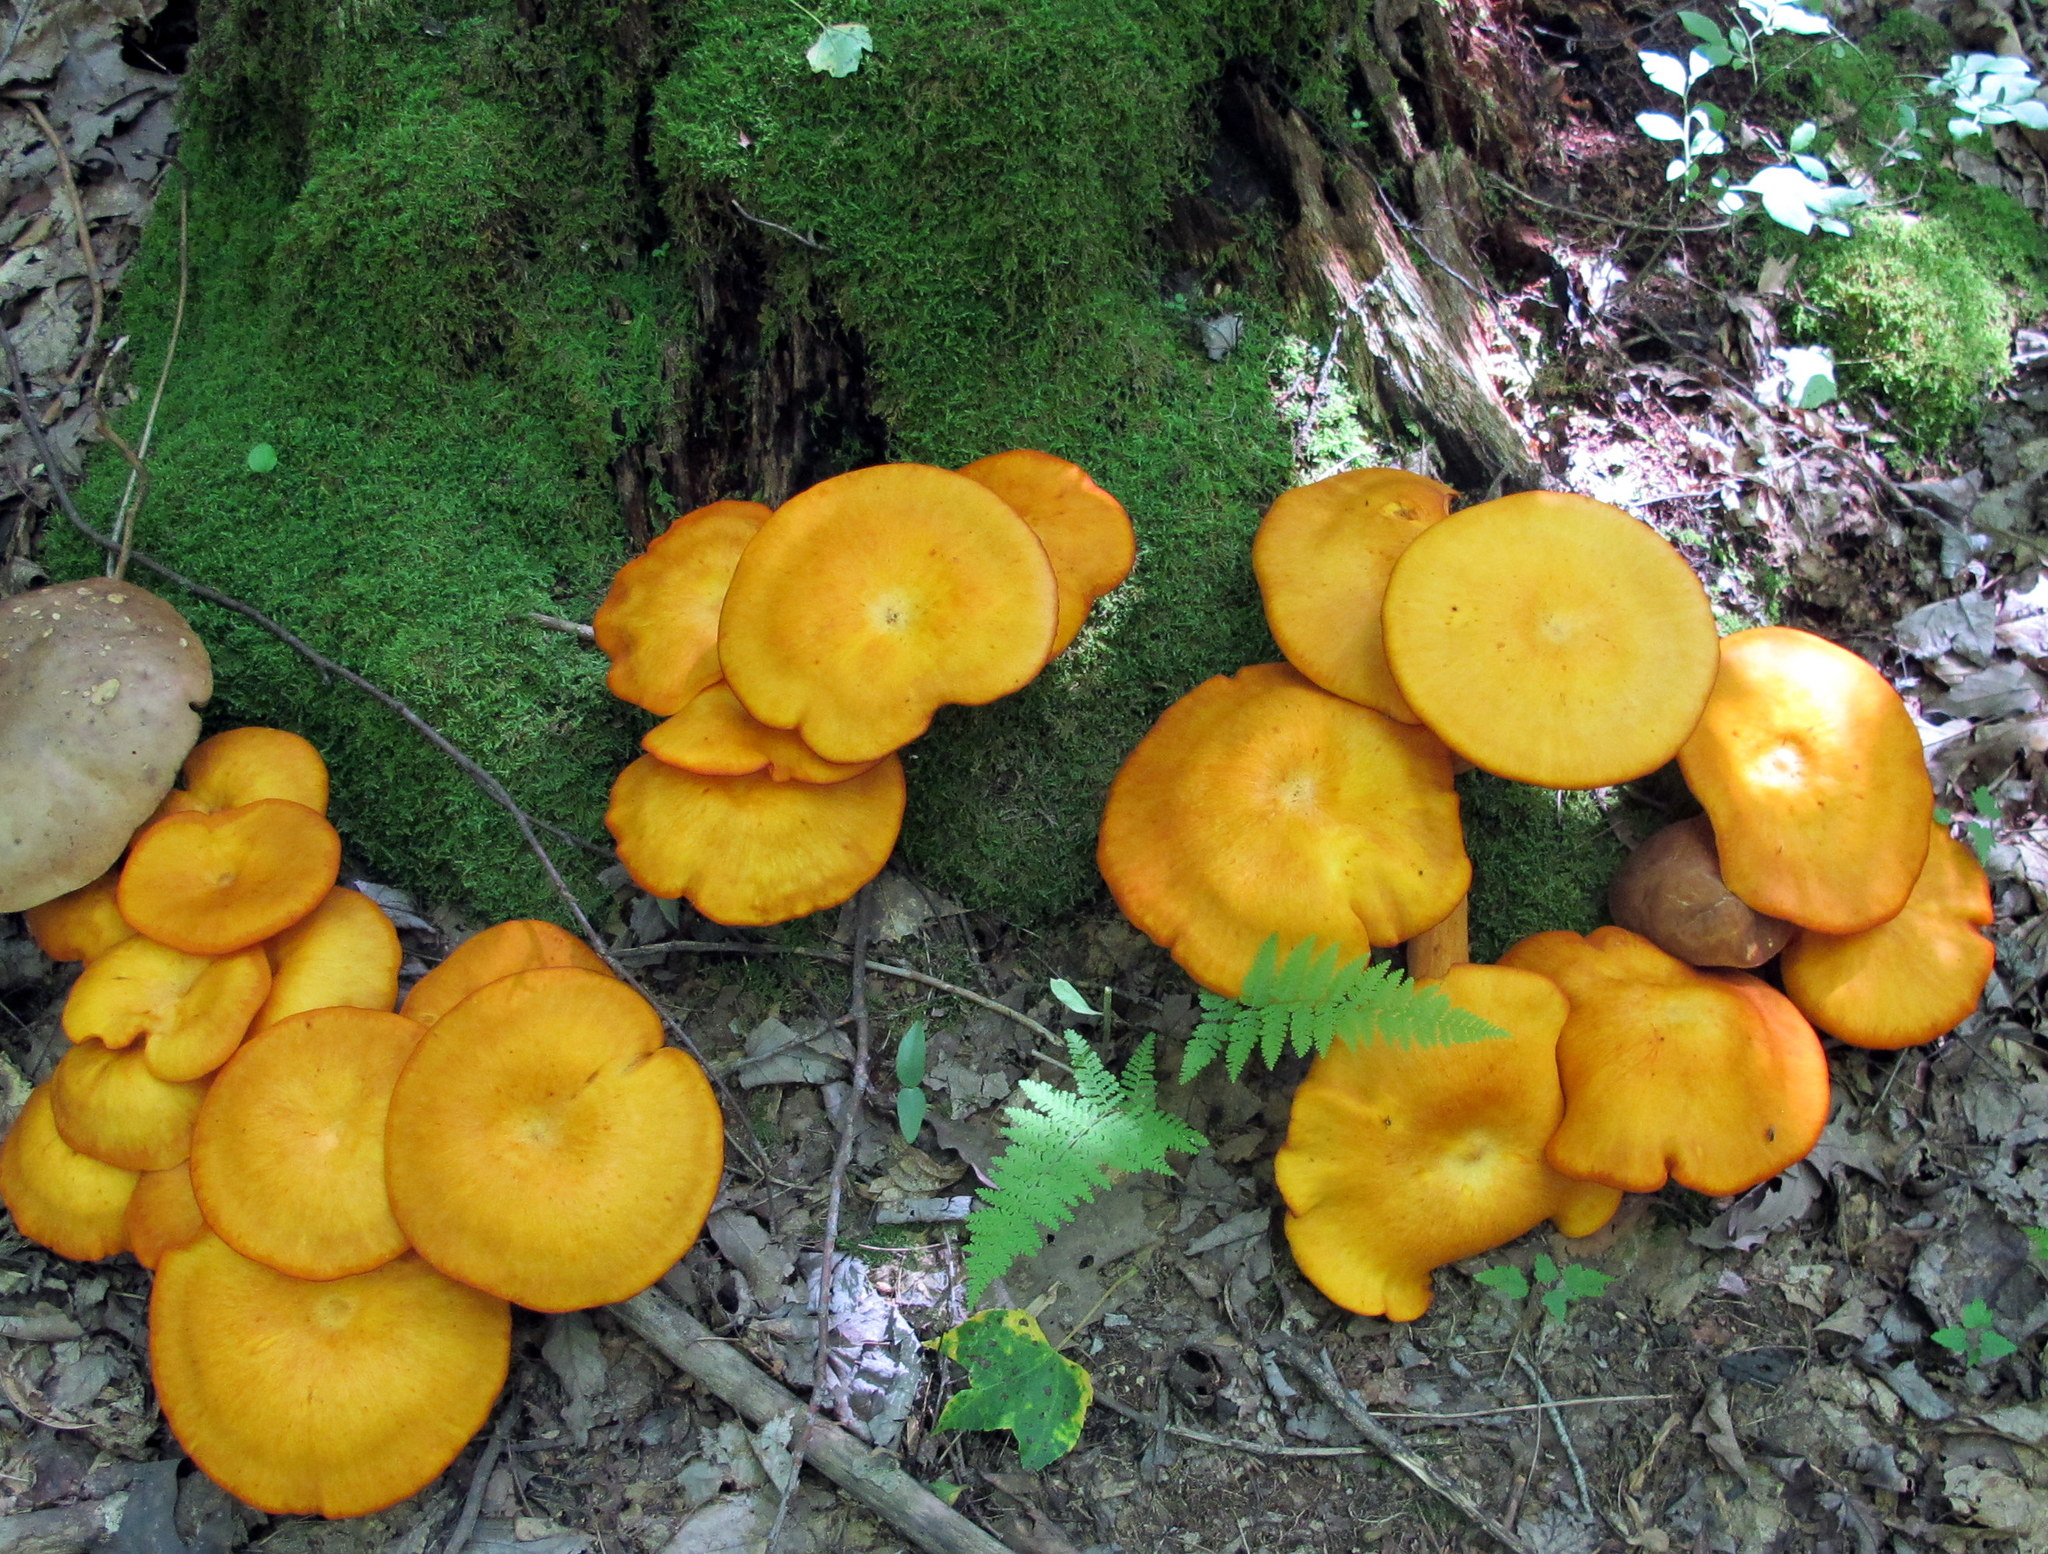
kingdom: Fungi
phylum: Basidiomycota
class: Agaricomycetes
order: Agaricales
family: Omphalotaceae
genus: Omphalotus
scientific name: Omphalotus illudens
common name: Jack o lantern
